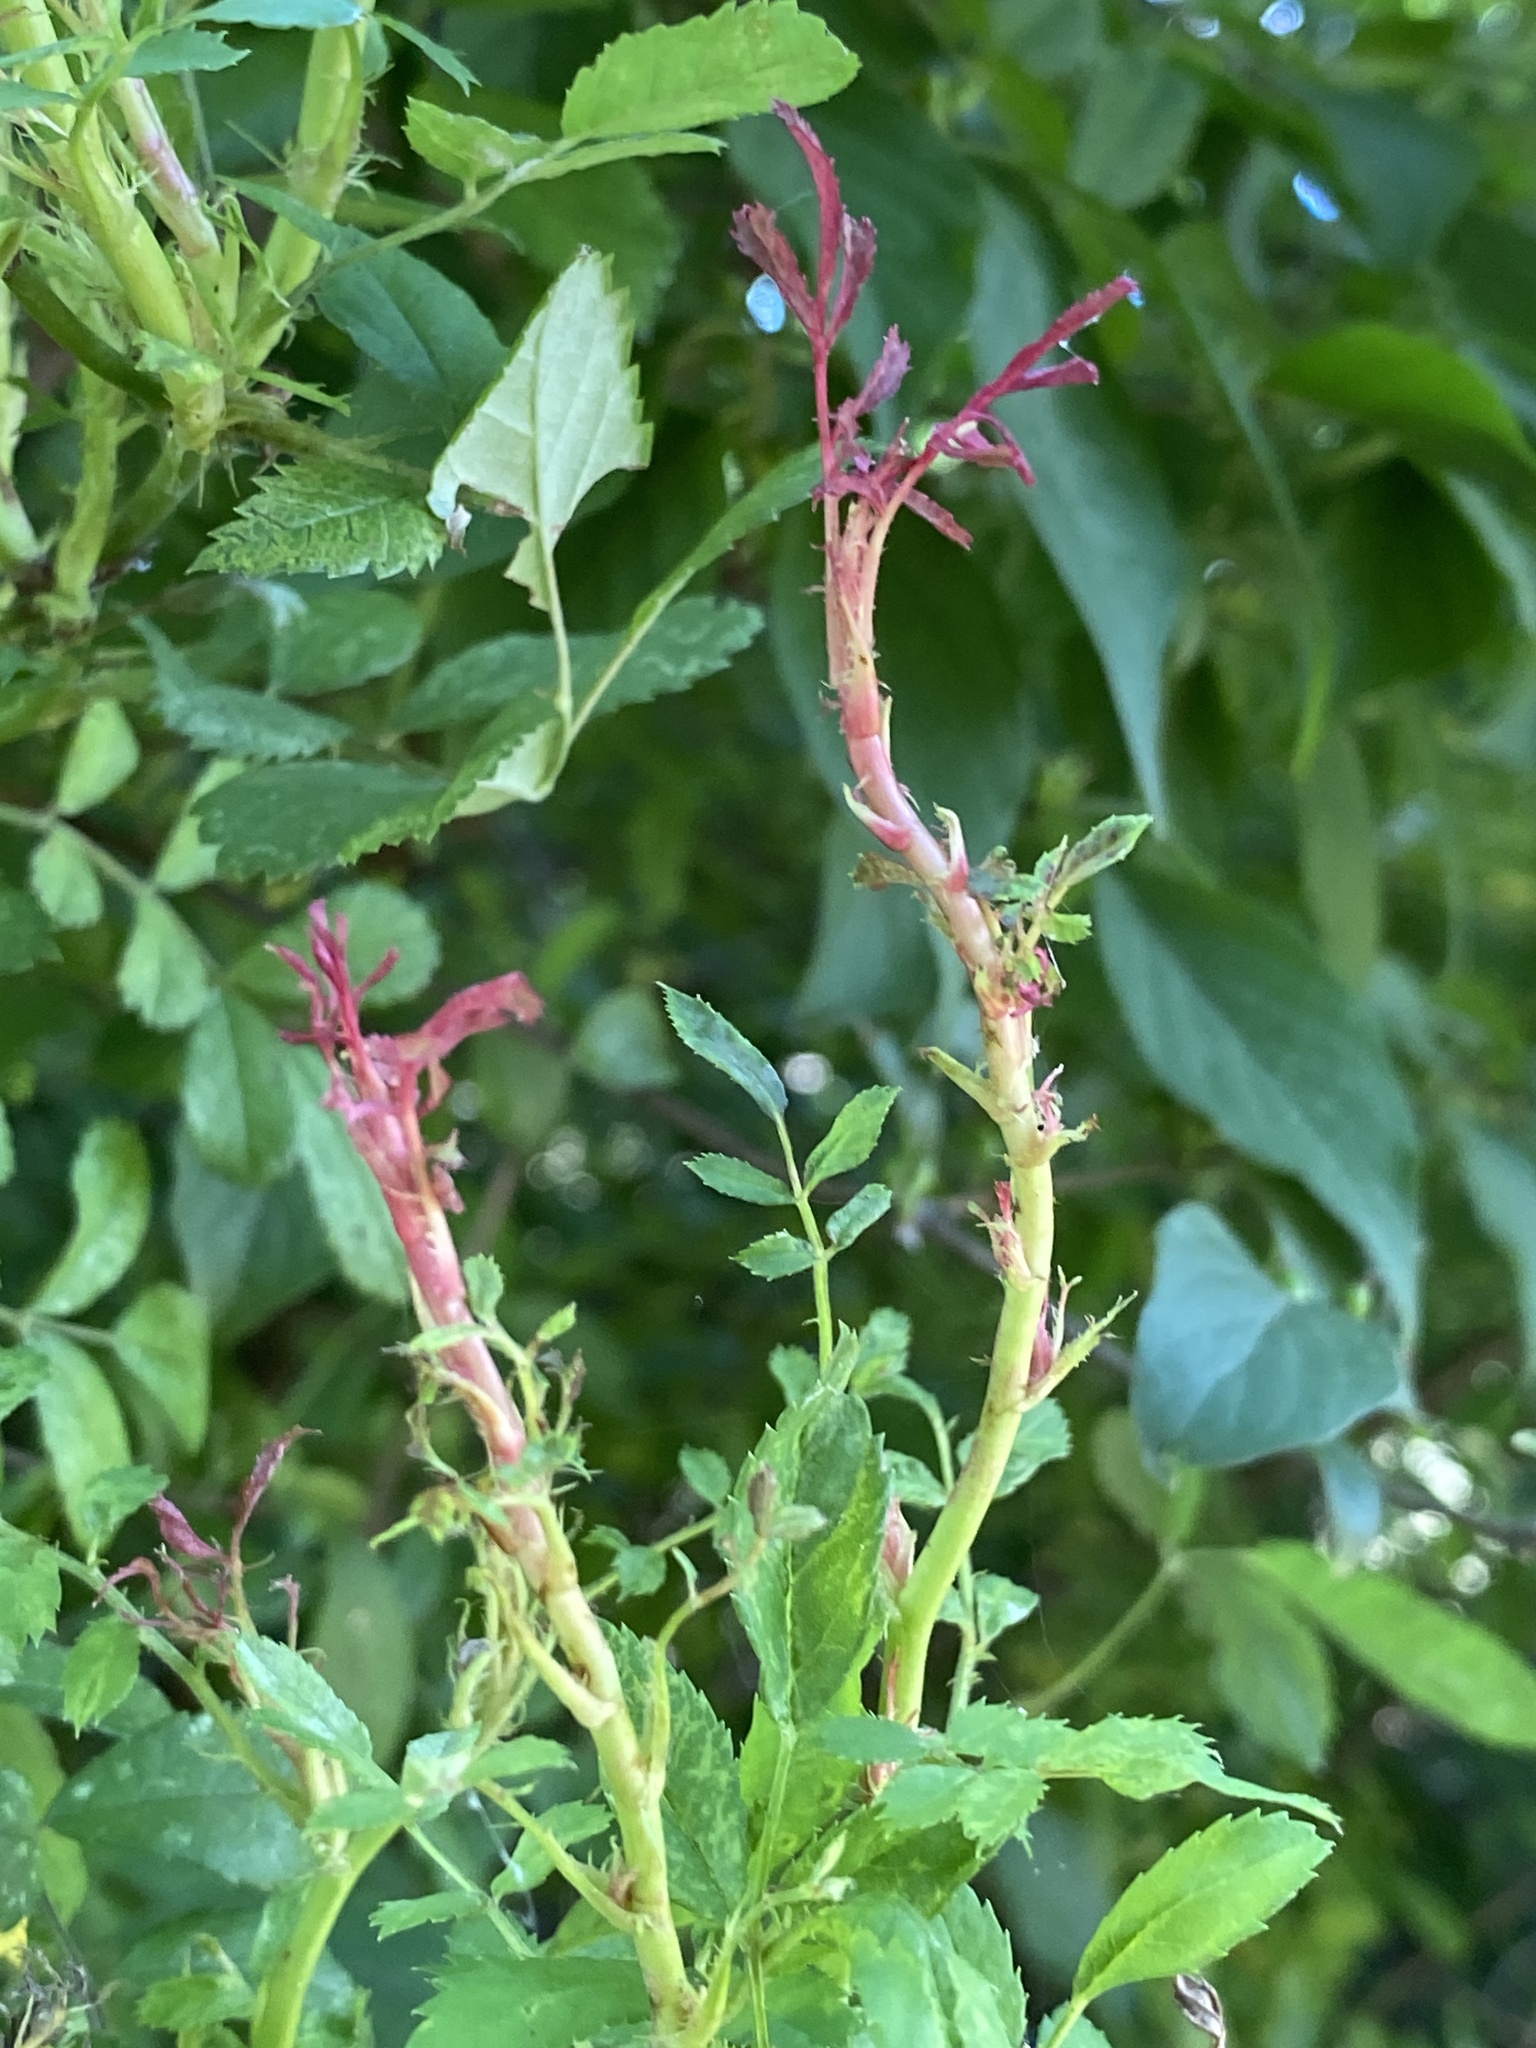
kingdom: Viruses
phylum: Negarnaviricota
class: Ellioviricetes
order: Bunyavirales
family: Fimoviridae
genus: Emaravirus
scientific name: Emaravirus rosae
